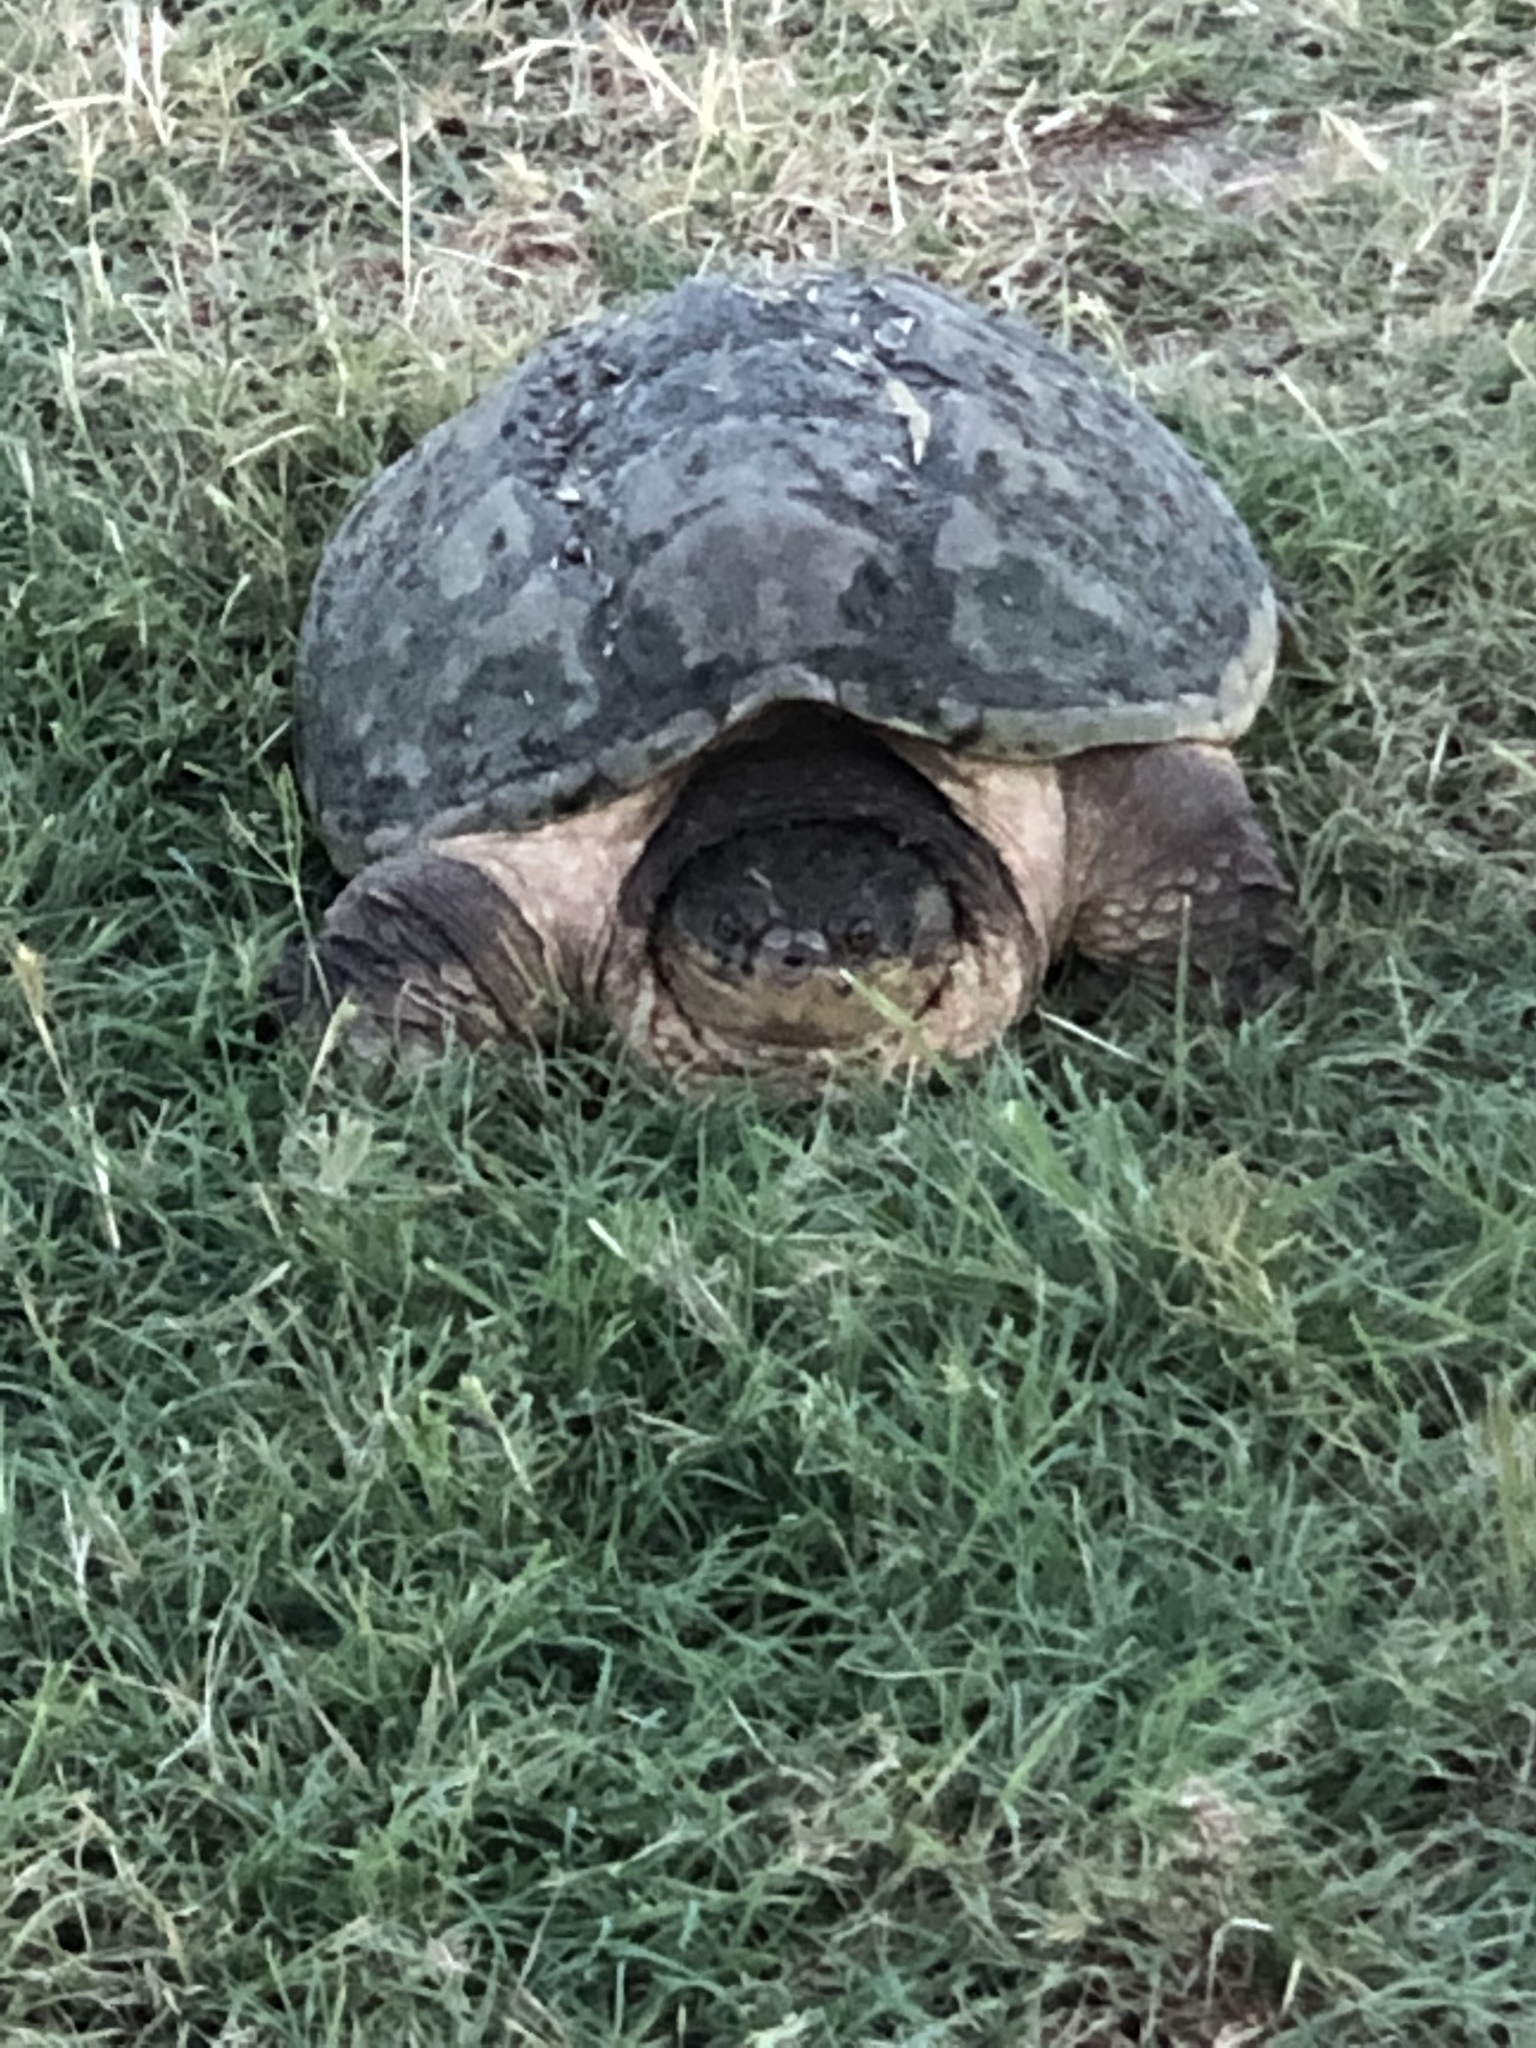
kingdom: Animalia
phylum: Chordata
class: Testudines
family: Chelydridae
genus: Chelydra
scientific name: Chelydra serpentina
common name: Common snapping turtle
